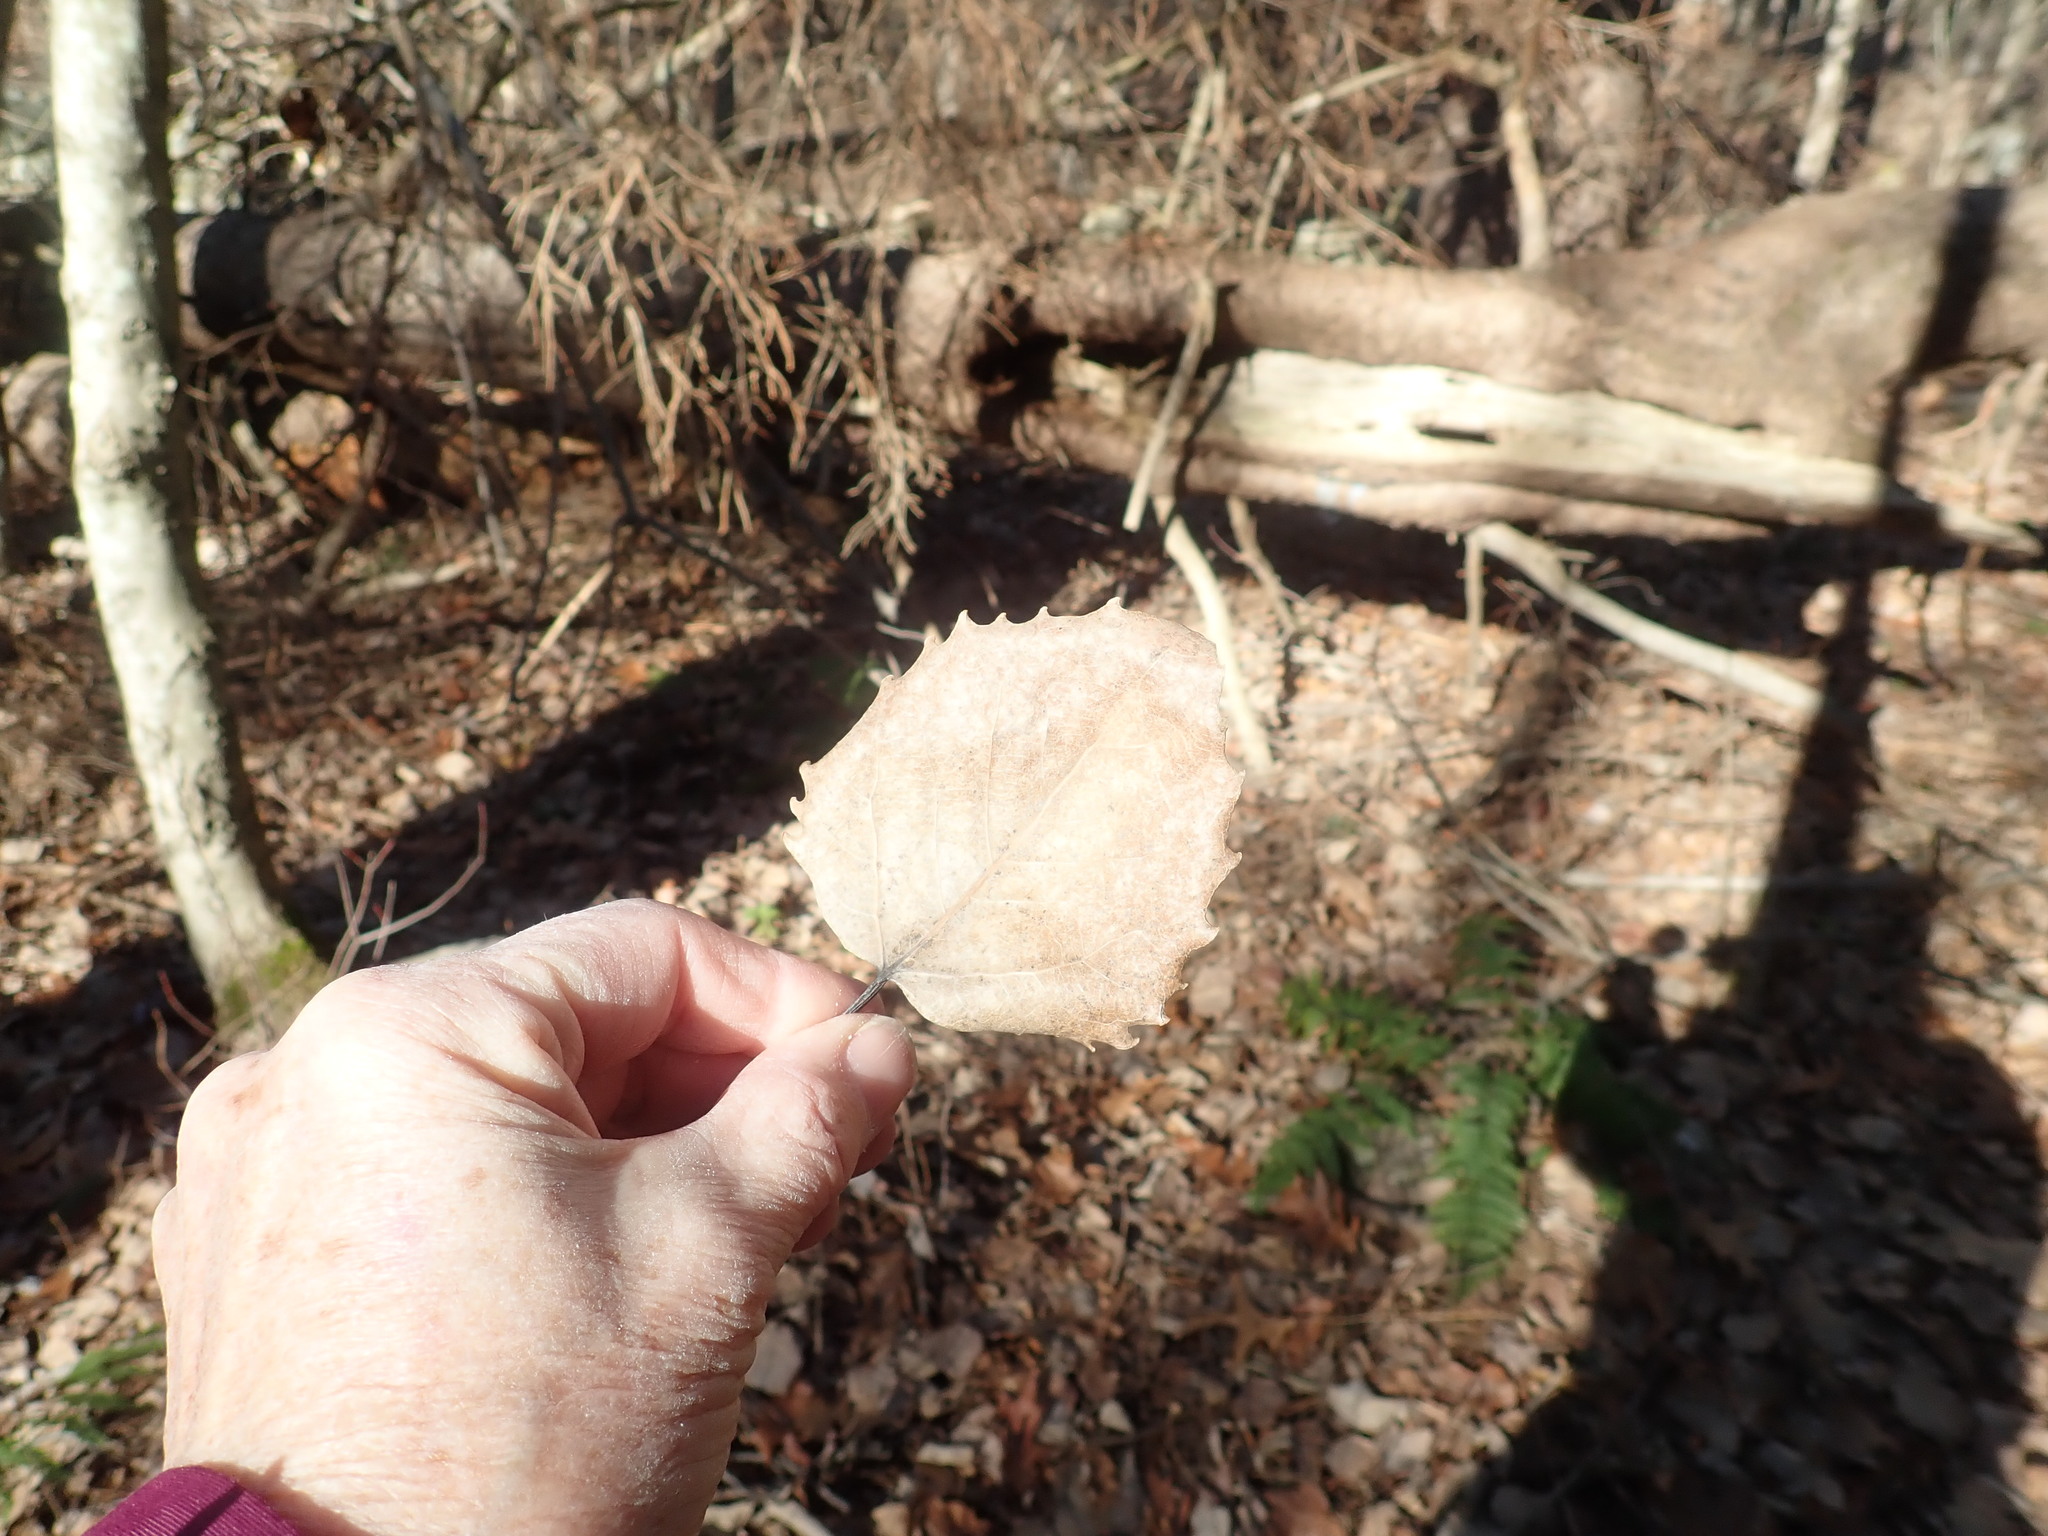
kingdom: Plantae
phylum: Tracheophyta
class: Magnoliopsida
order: Malpighiales
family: Salicaceae
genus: Populus
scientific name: Populus grandidentata
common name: Bigtooth aspen
